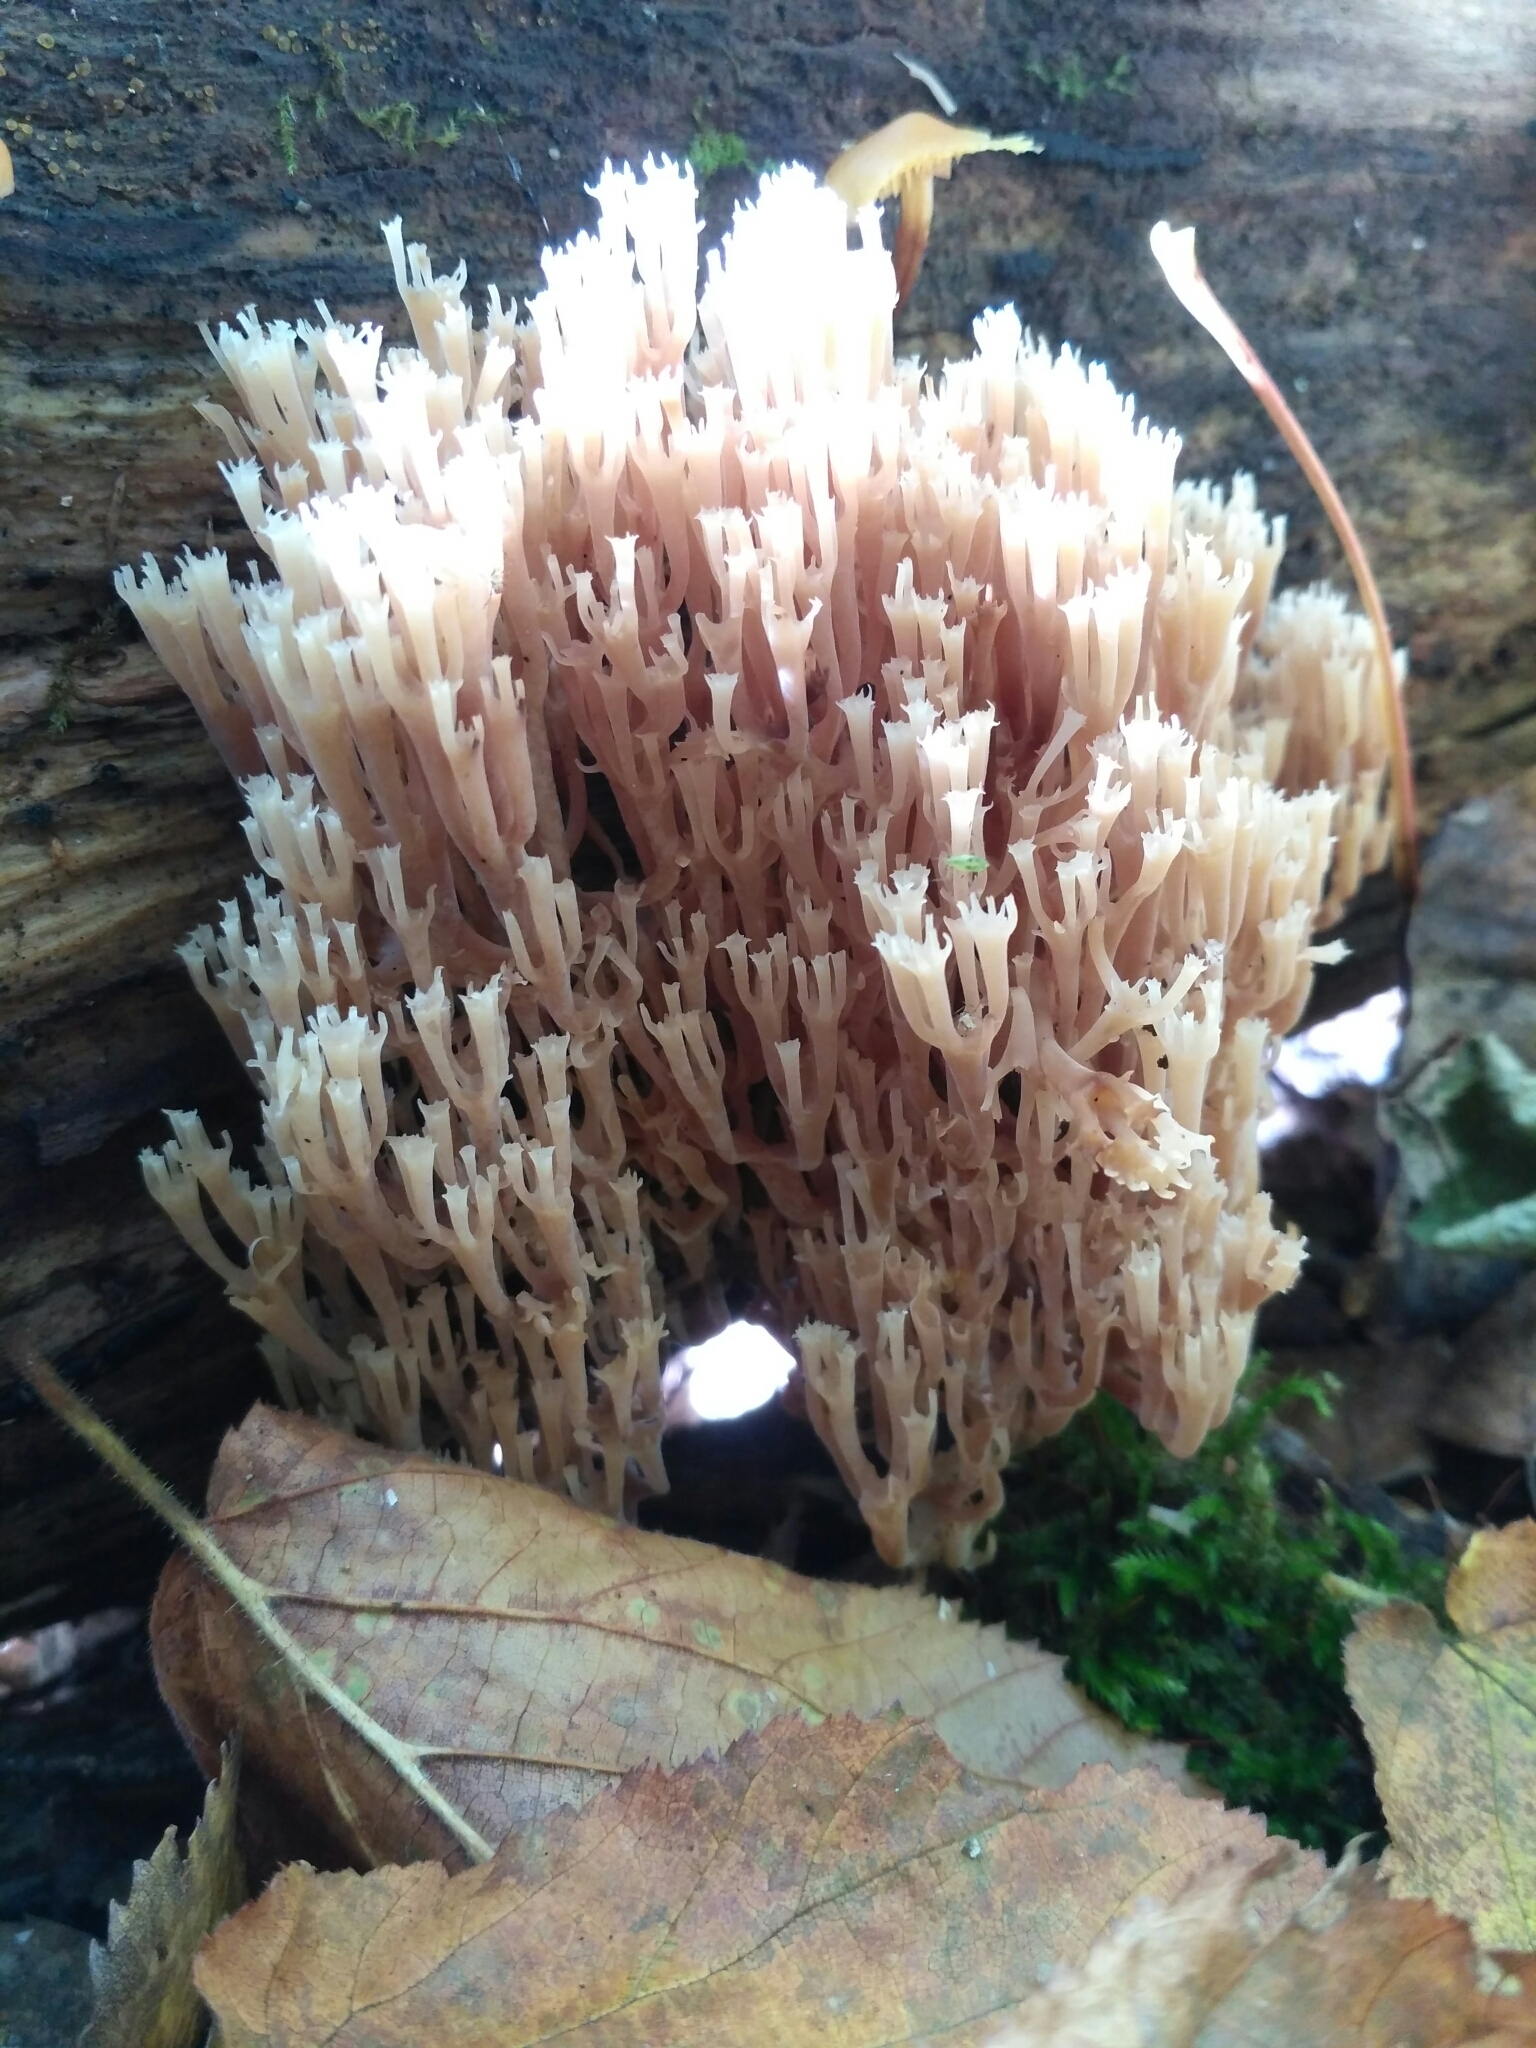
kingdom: Fungi
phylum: Basidiomycota
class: Agaricomycetes
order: Russulales
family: Auriscalpiaceae
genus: Artomyces
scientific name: Artomyces pyxidatus
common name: Crown-tipped coral fungus
